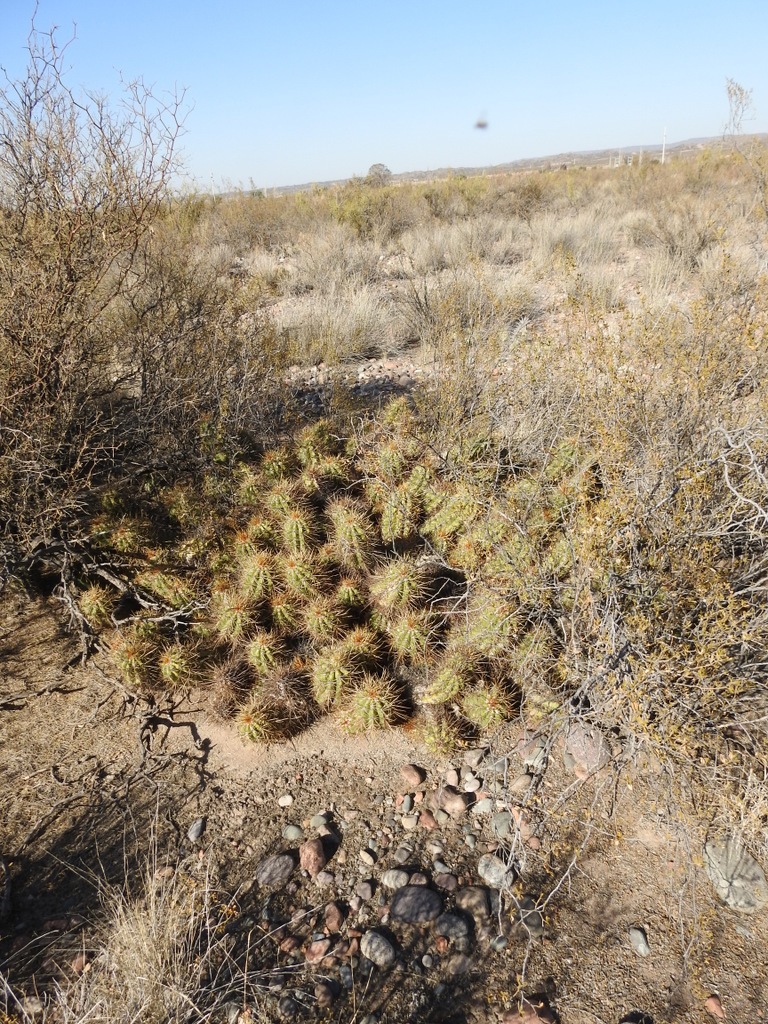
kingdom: Plantae
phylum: Tracheophyta
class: Magnoliopsida
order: Caryophyllales
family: Cactaceae
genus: Soehrensia
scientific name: Soehrensia candicans
